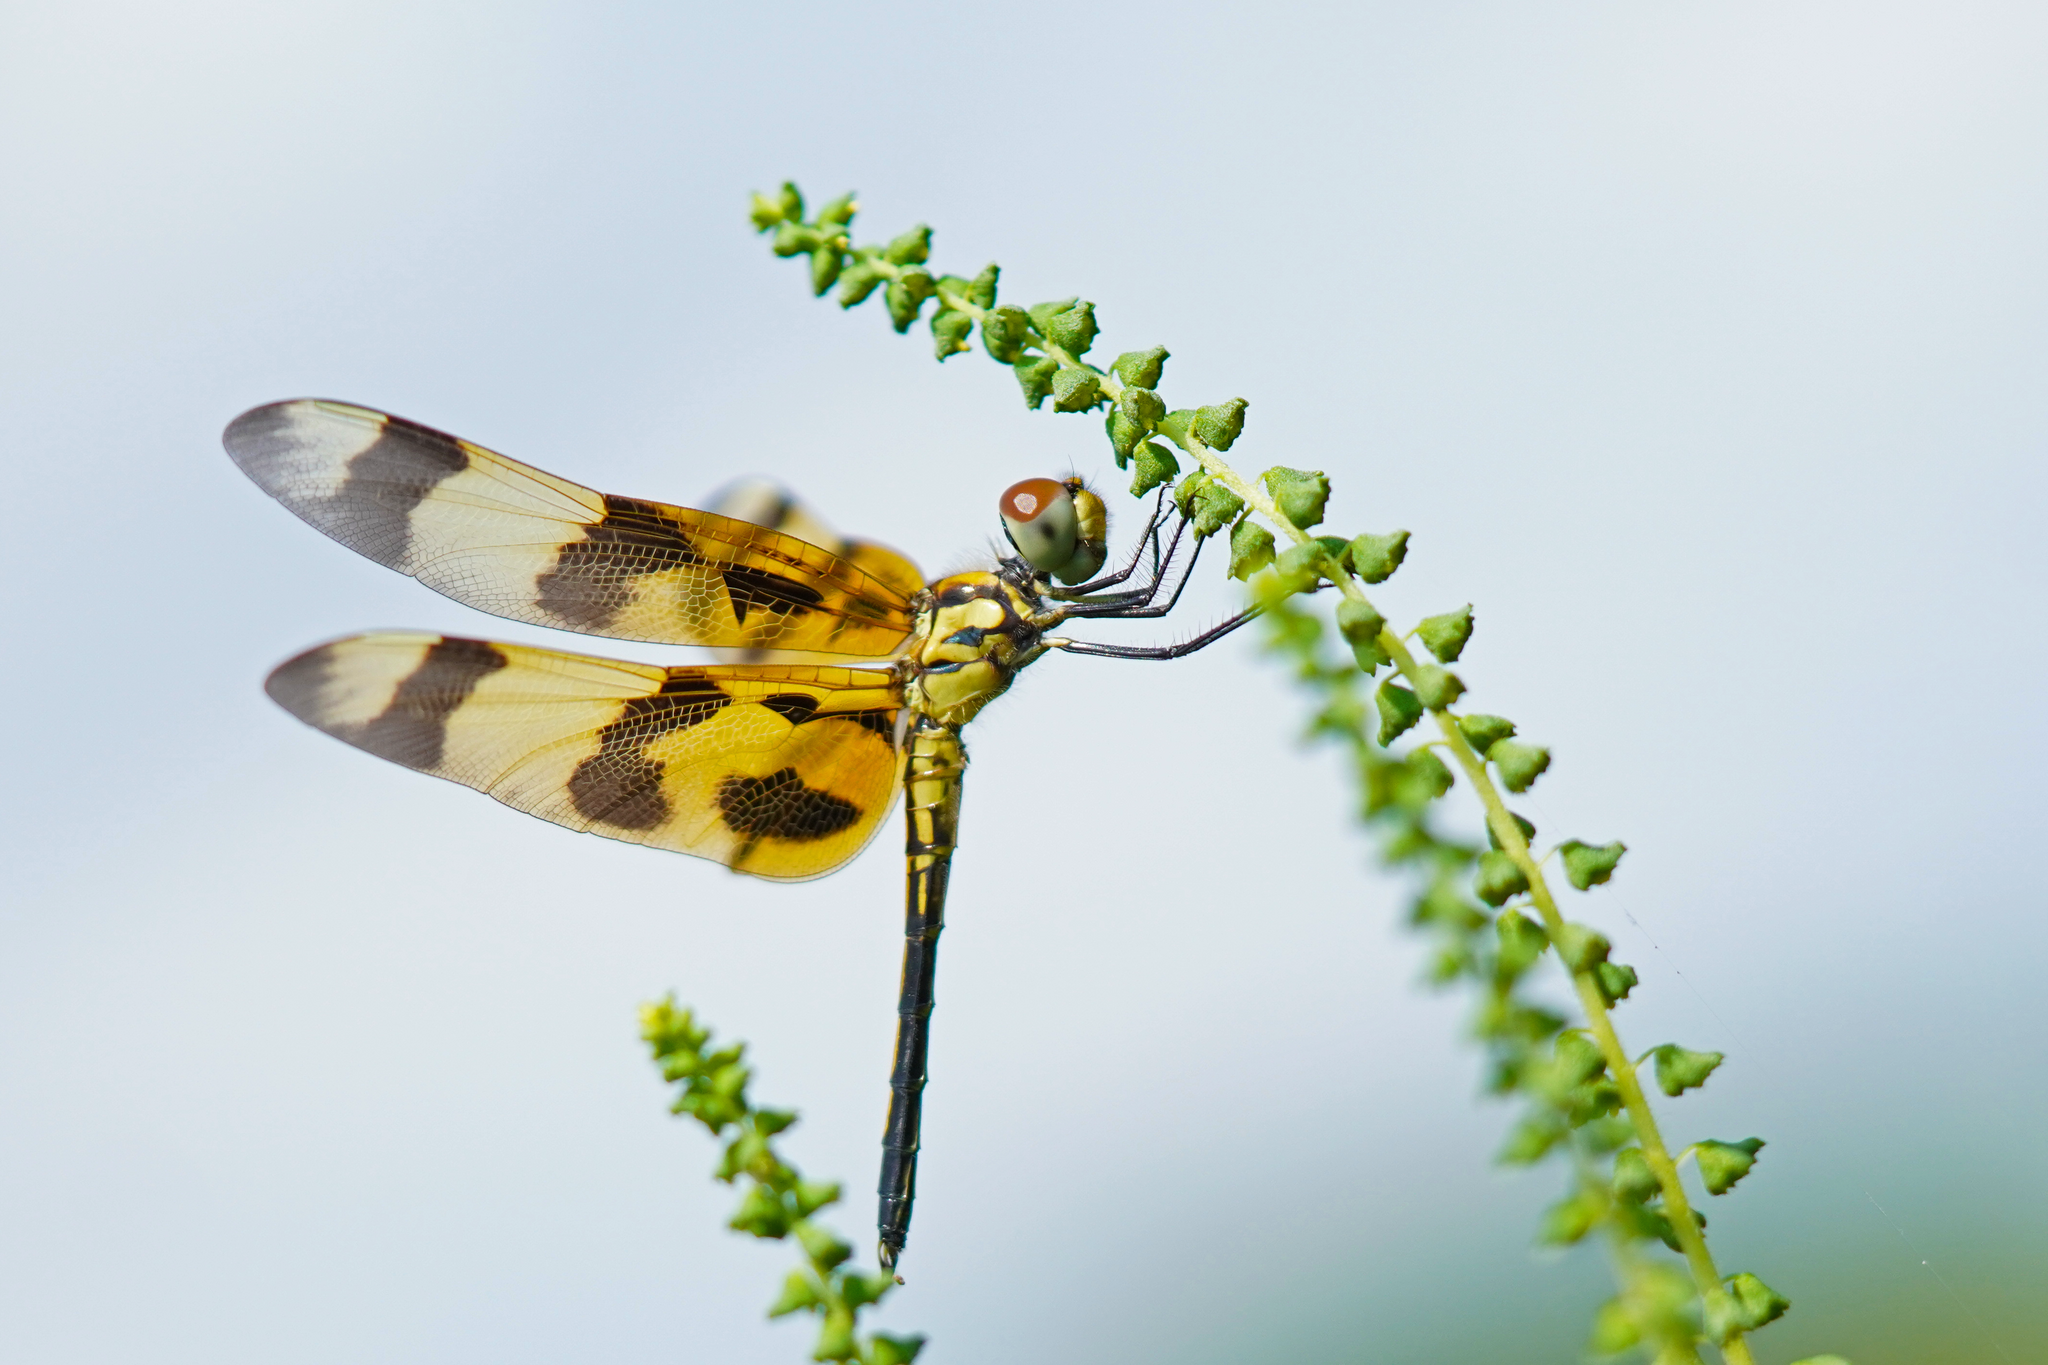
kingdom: Animalia
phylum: Arthropoda
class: Insecta
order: Odonata
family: Libellulidae
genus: Celithemis
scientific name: Celithemis eponina
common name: Halloween pennant
